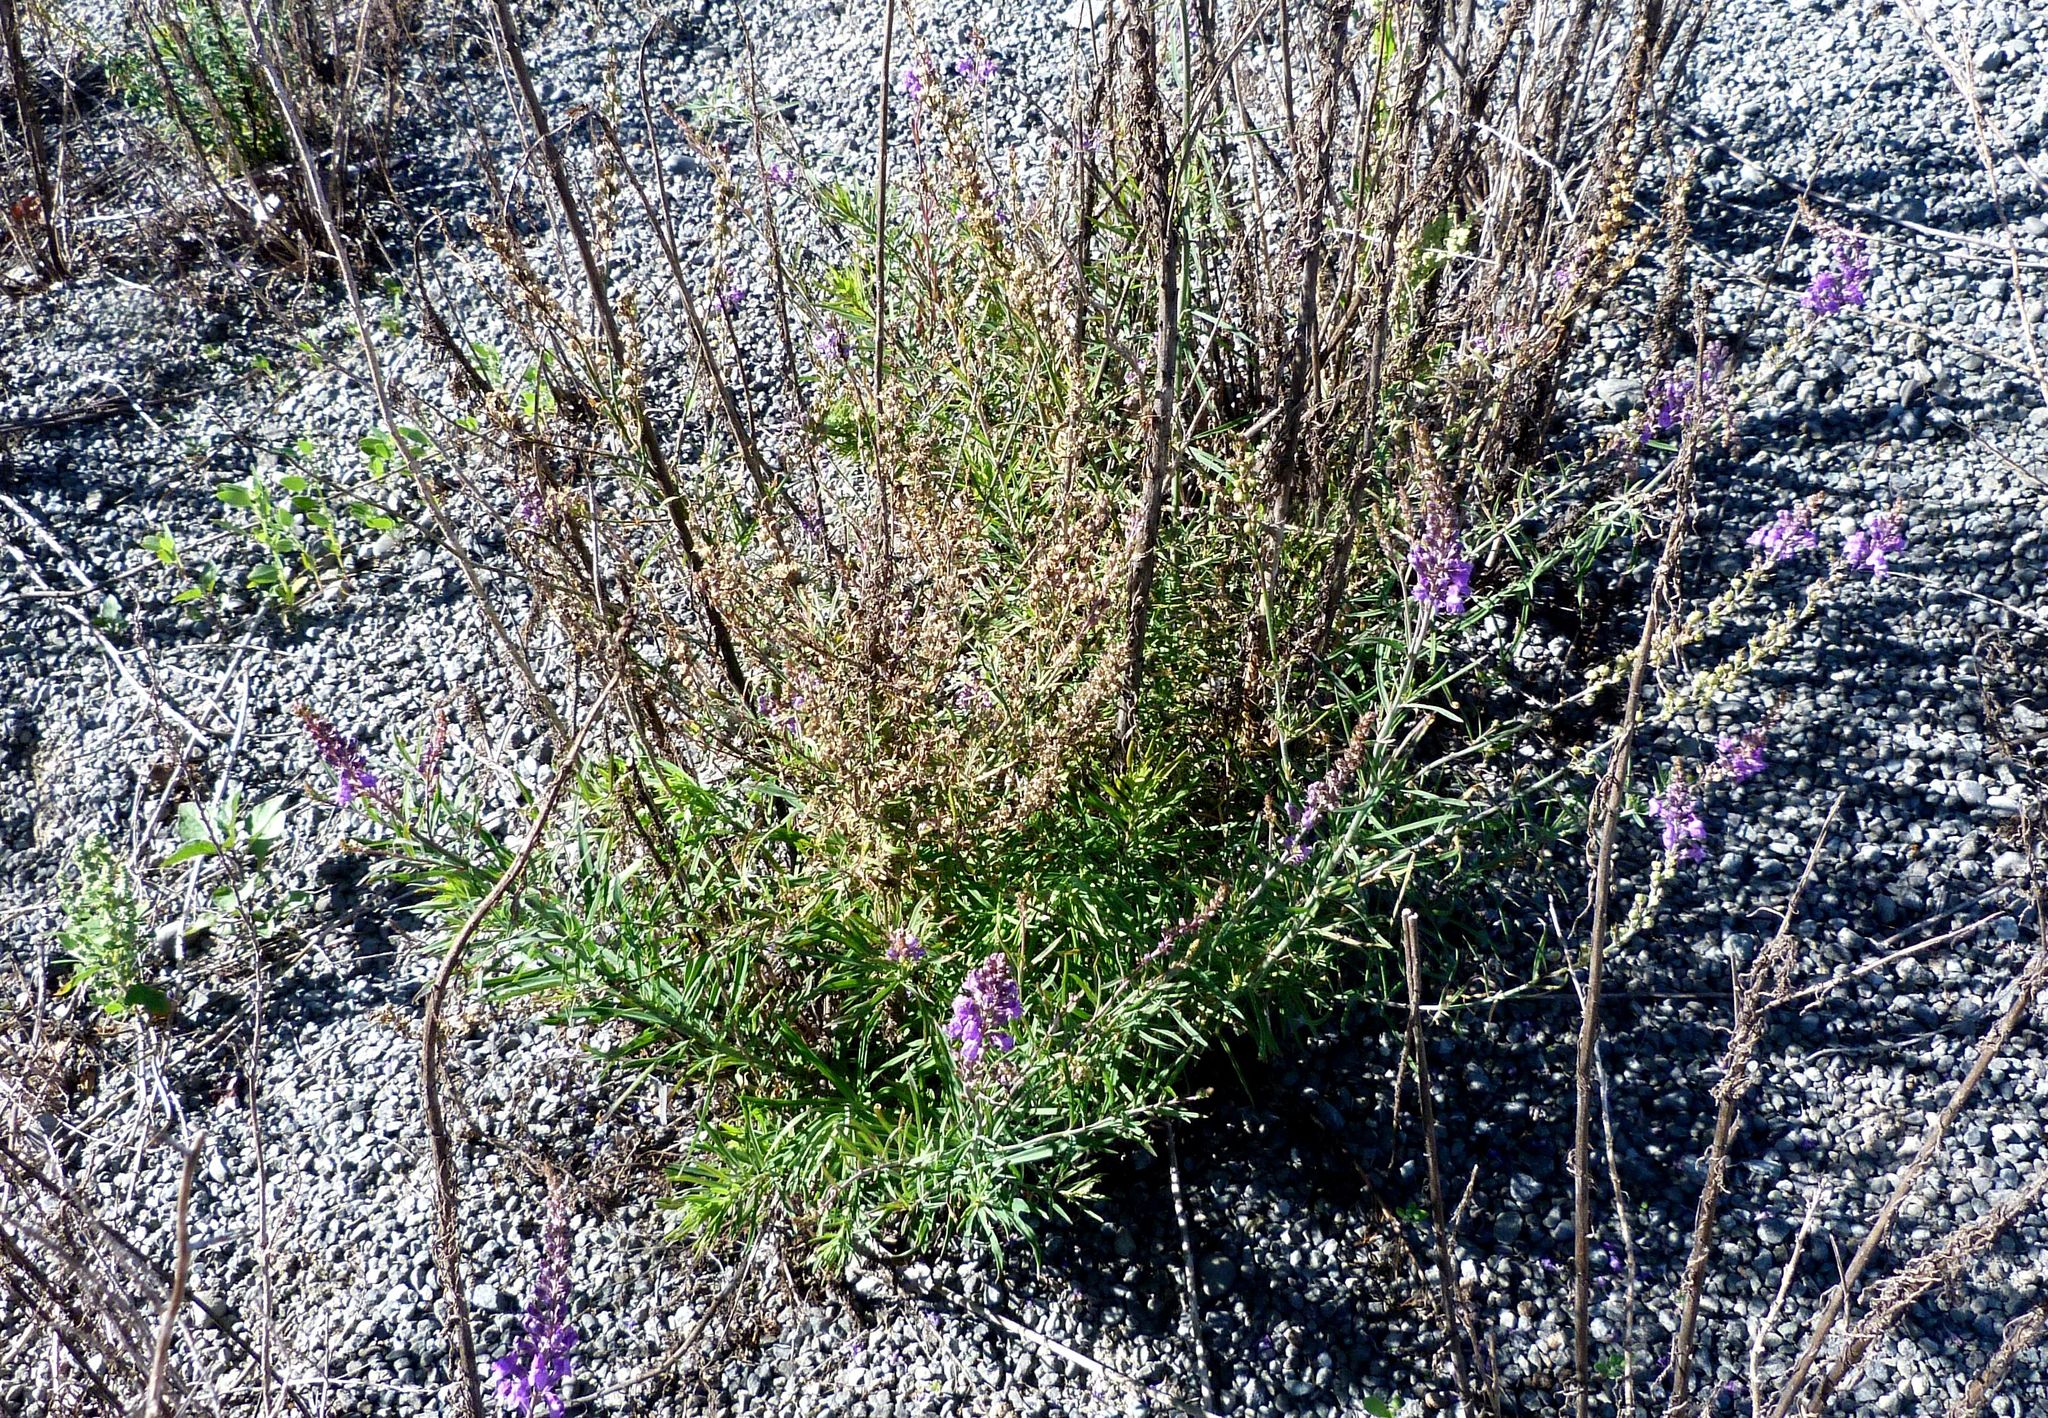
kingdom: Plantae
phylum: Tracheophyta
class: Magnoliopsida
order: Lamiales
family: Plantaginaceae
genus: Linaria
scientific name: Linaria purpurea
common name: Purple toadflax
